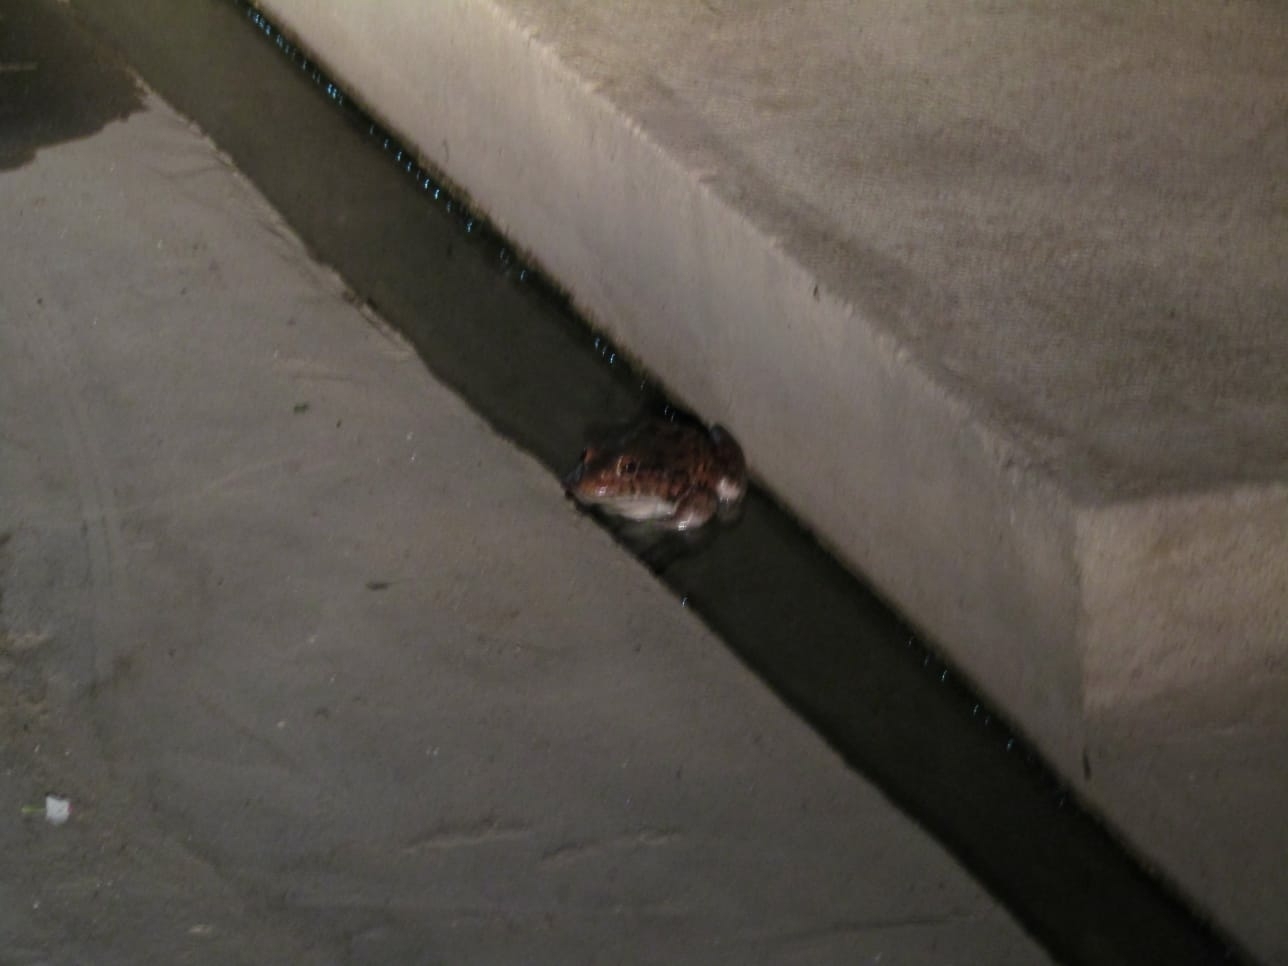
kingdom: Animalia
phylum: Chordata
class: Amphibia
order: Anura
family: Leptodactylidae
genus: Leptodactylus
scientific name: Leptodactylus vastus
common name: Northeastern pepper frog
